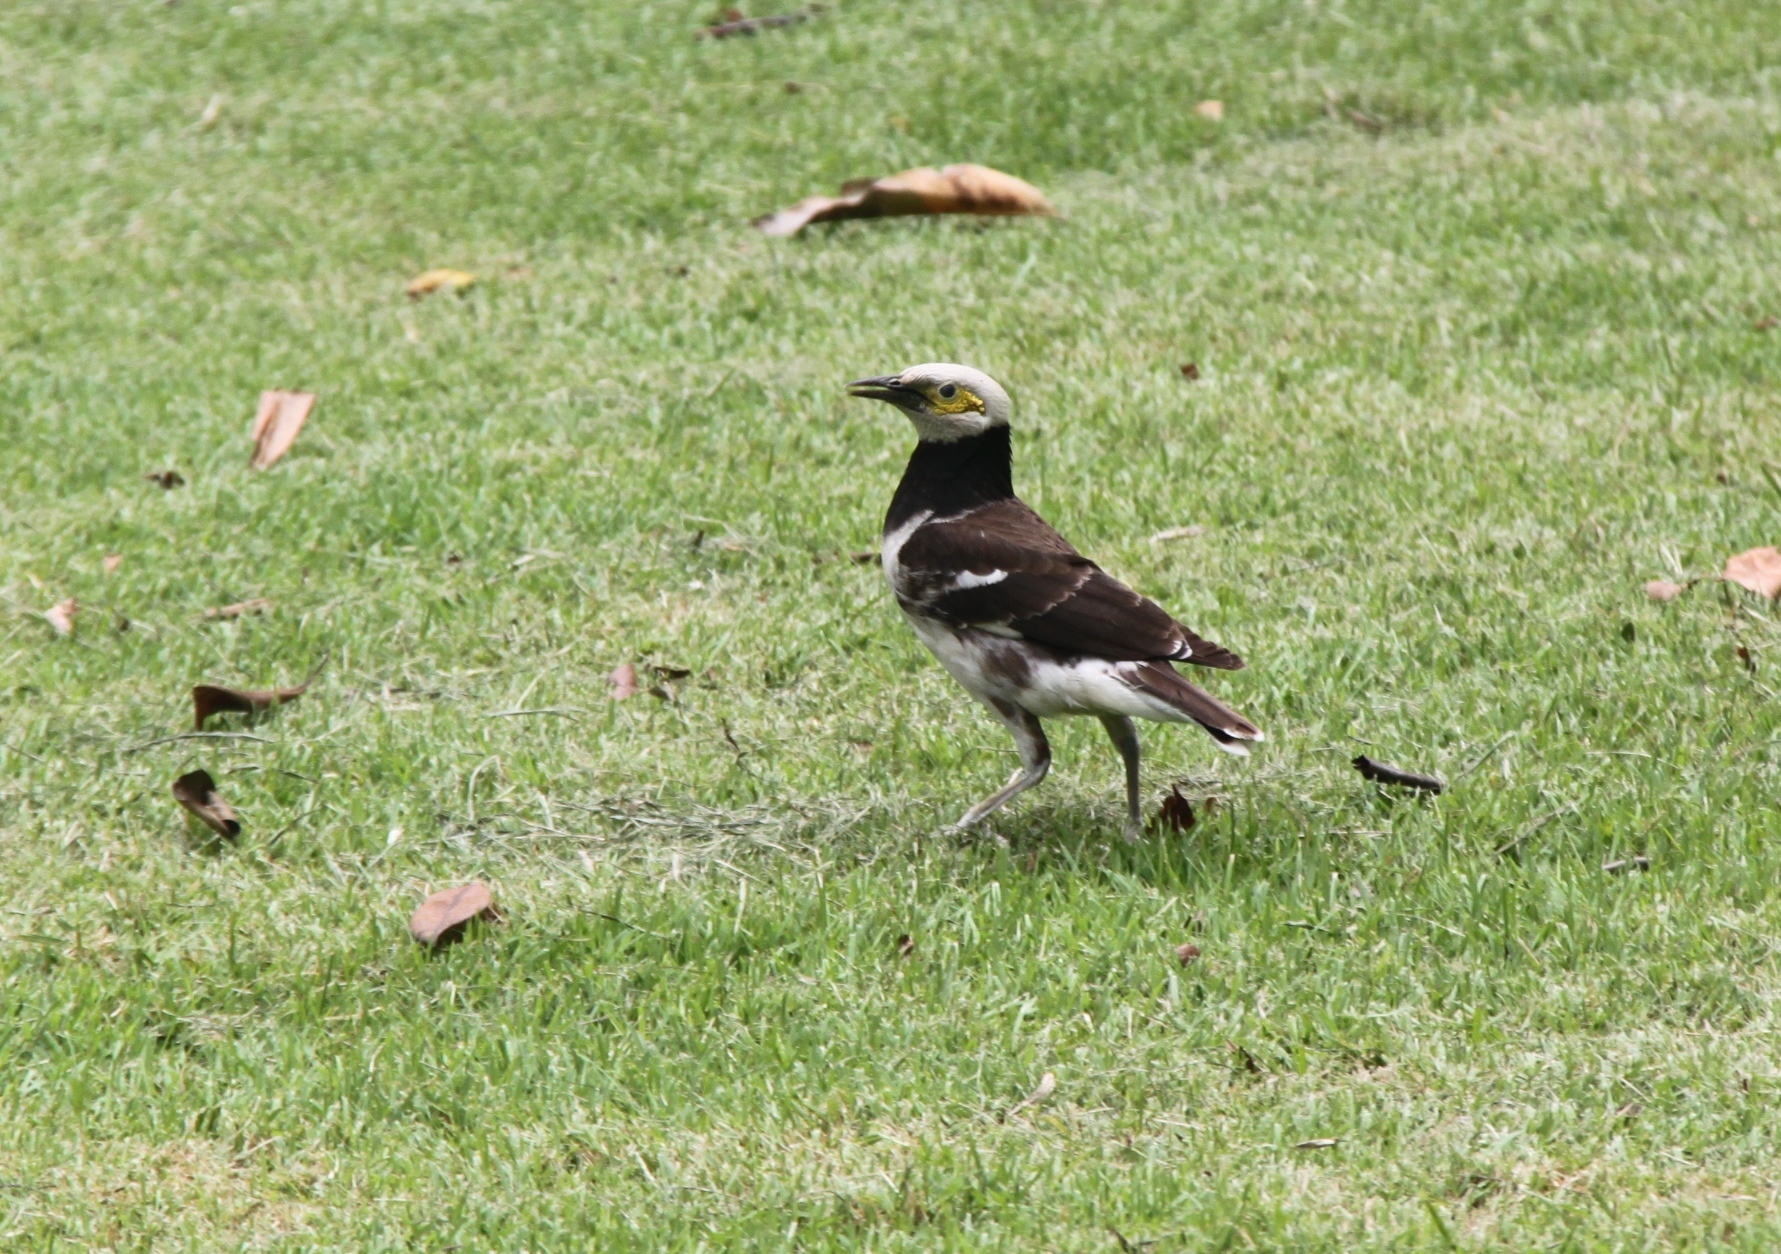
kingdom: Animalia
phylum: Chordata
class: Aves
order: Passeriformes
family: Sturnidae
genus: Gracupica
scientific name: Gracupica nigricollis
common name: Black-collared starling
